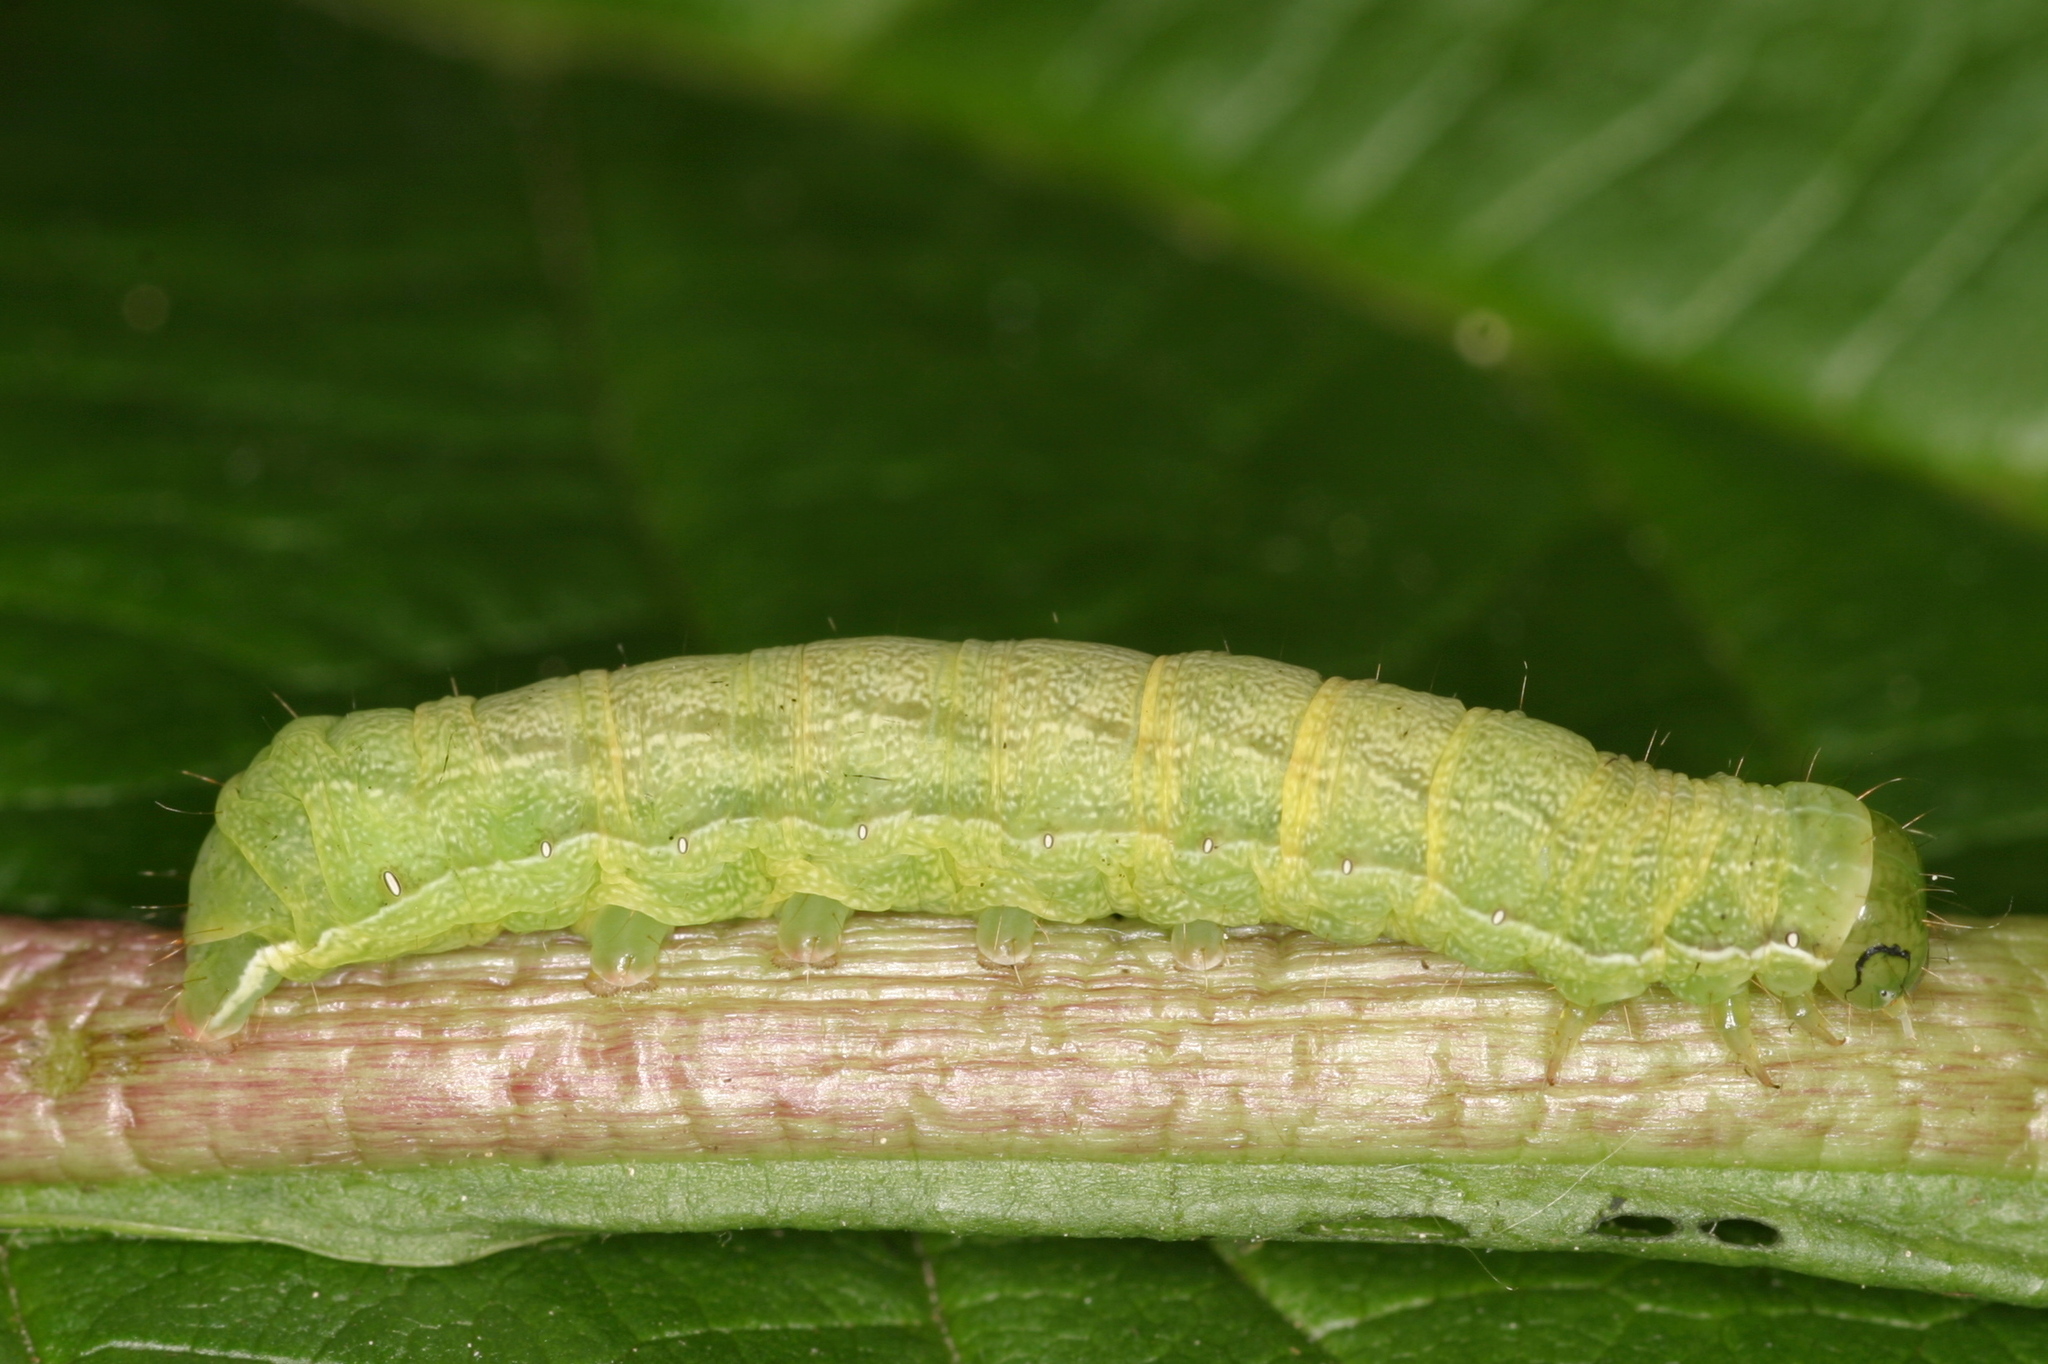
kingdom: Animalia
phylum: Arthropoda
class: Insecta
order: Lepidoptera
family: Noctuidae
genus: Cerastis
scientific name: Cerastis leucographa
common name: White-marked
